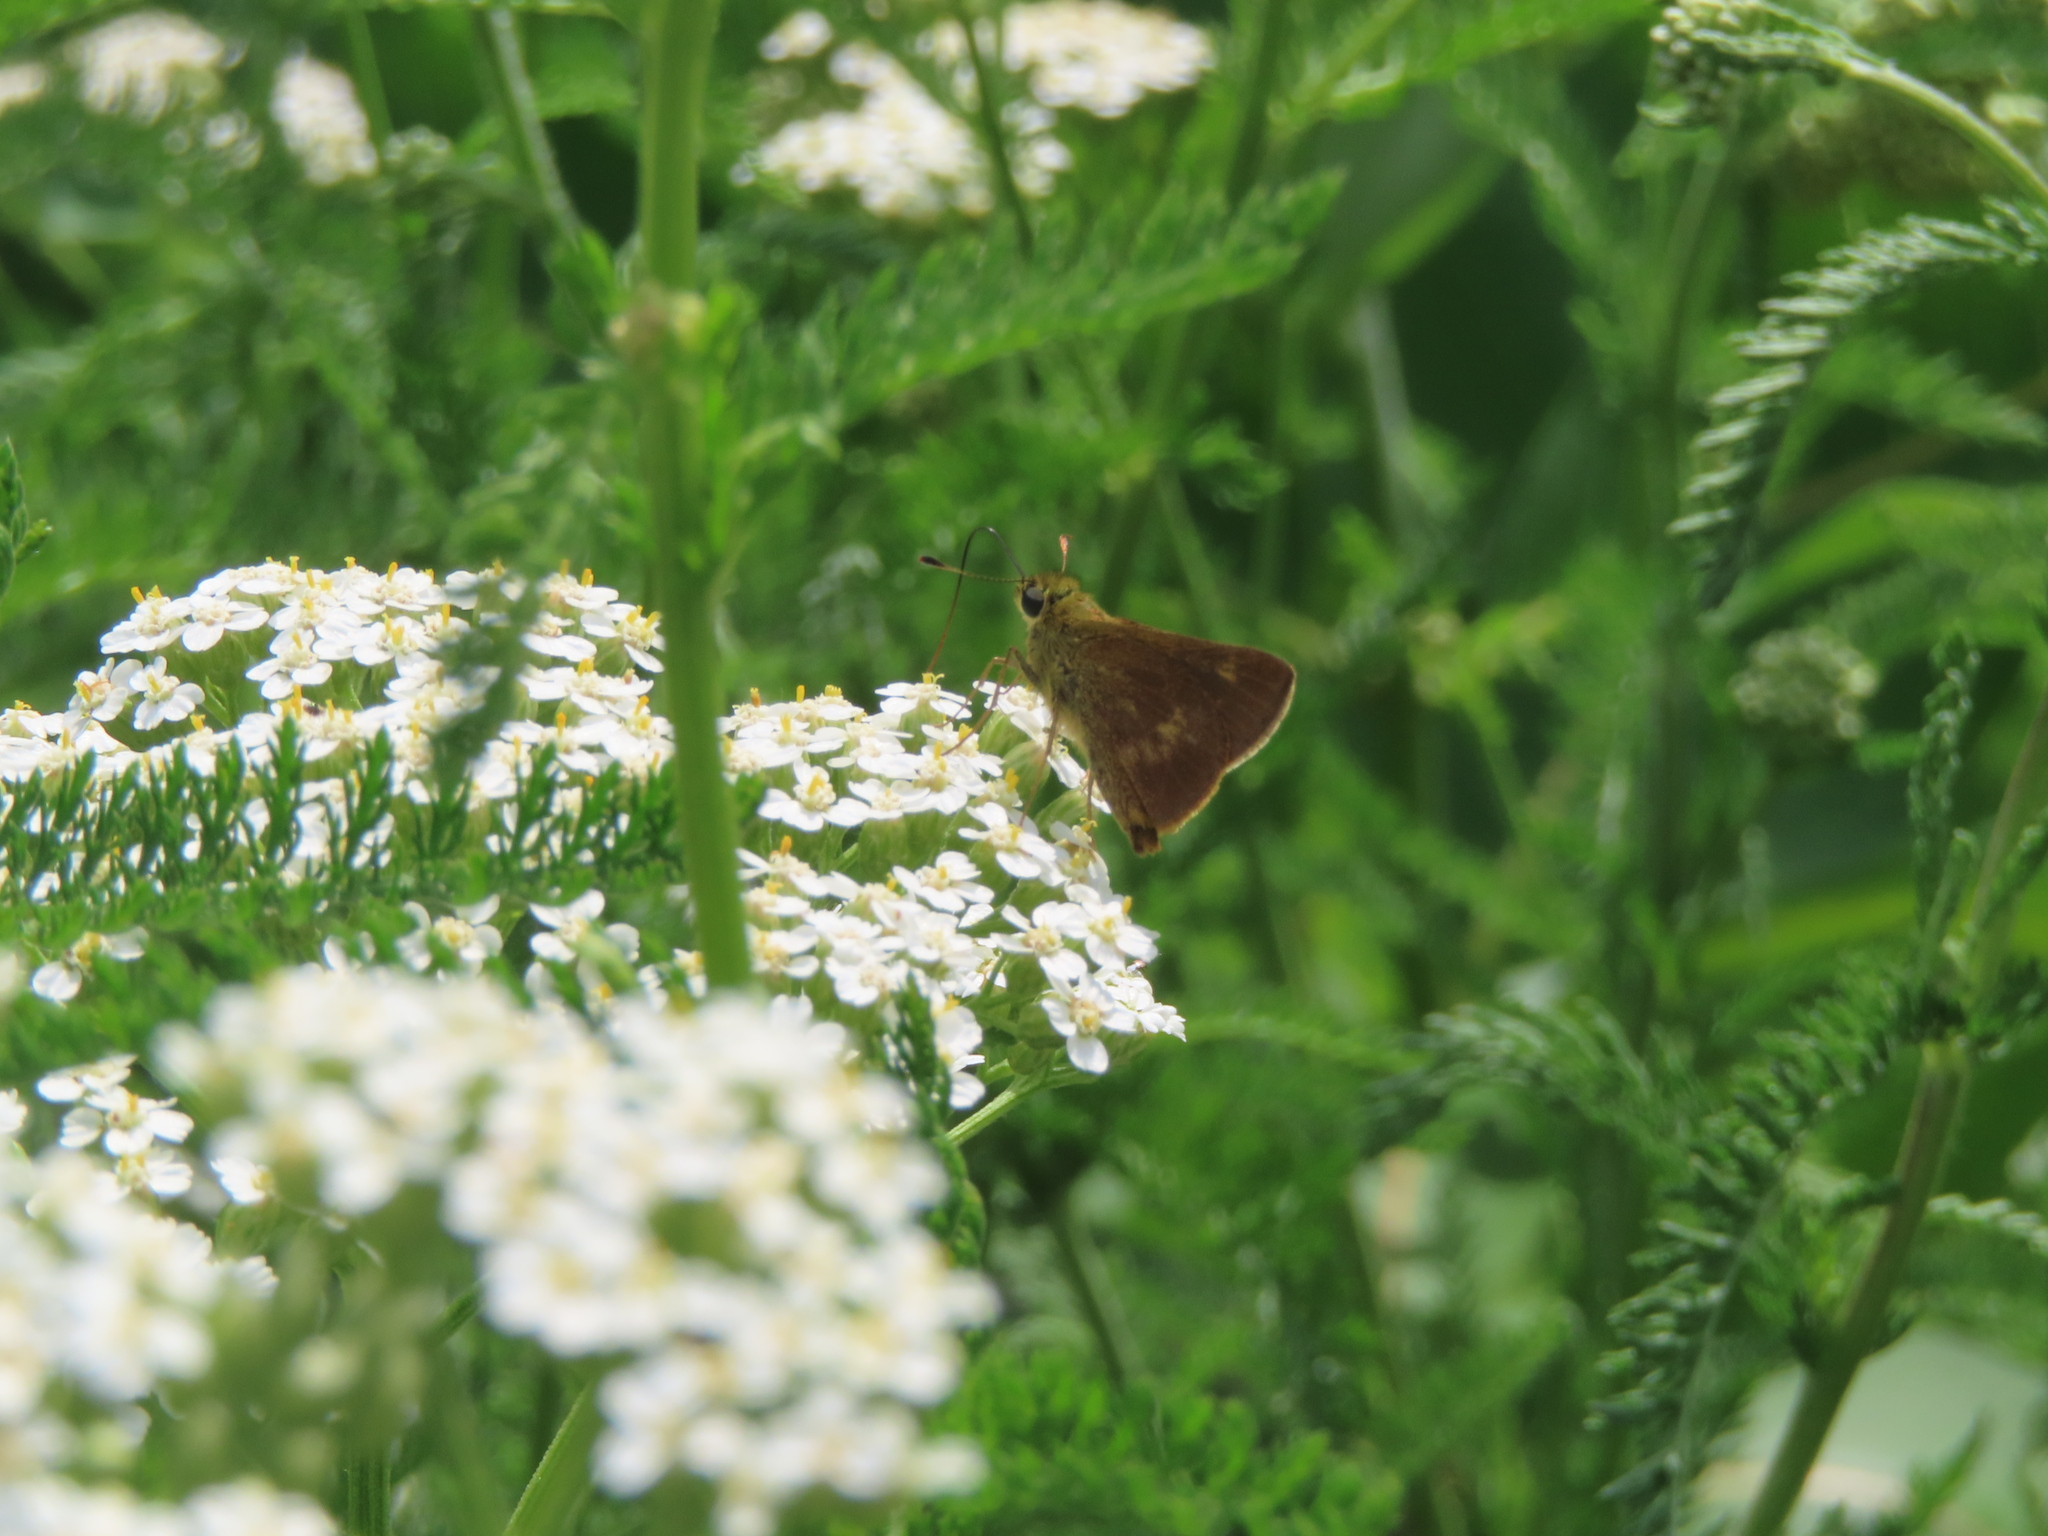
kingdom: Animalia
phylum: Arthropoda
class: Insecta
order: Lepidoptera
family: Hesperiidae
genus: Polites
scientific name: Polites egeremet
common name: Northern broken-dash
